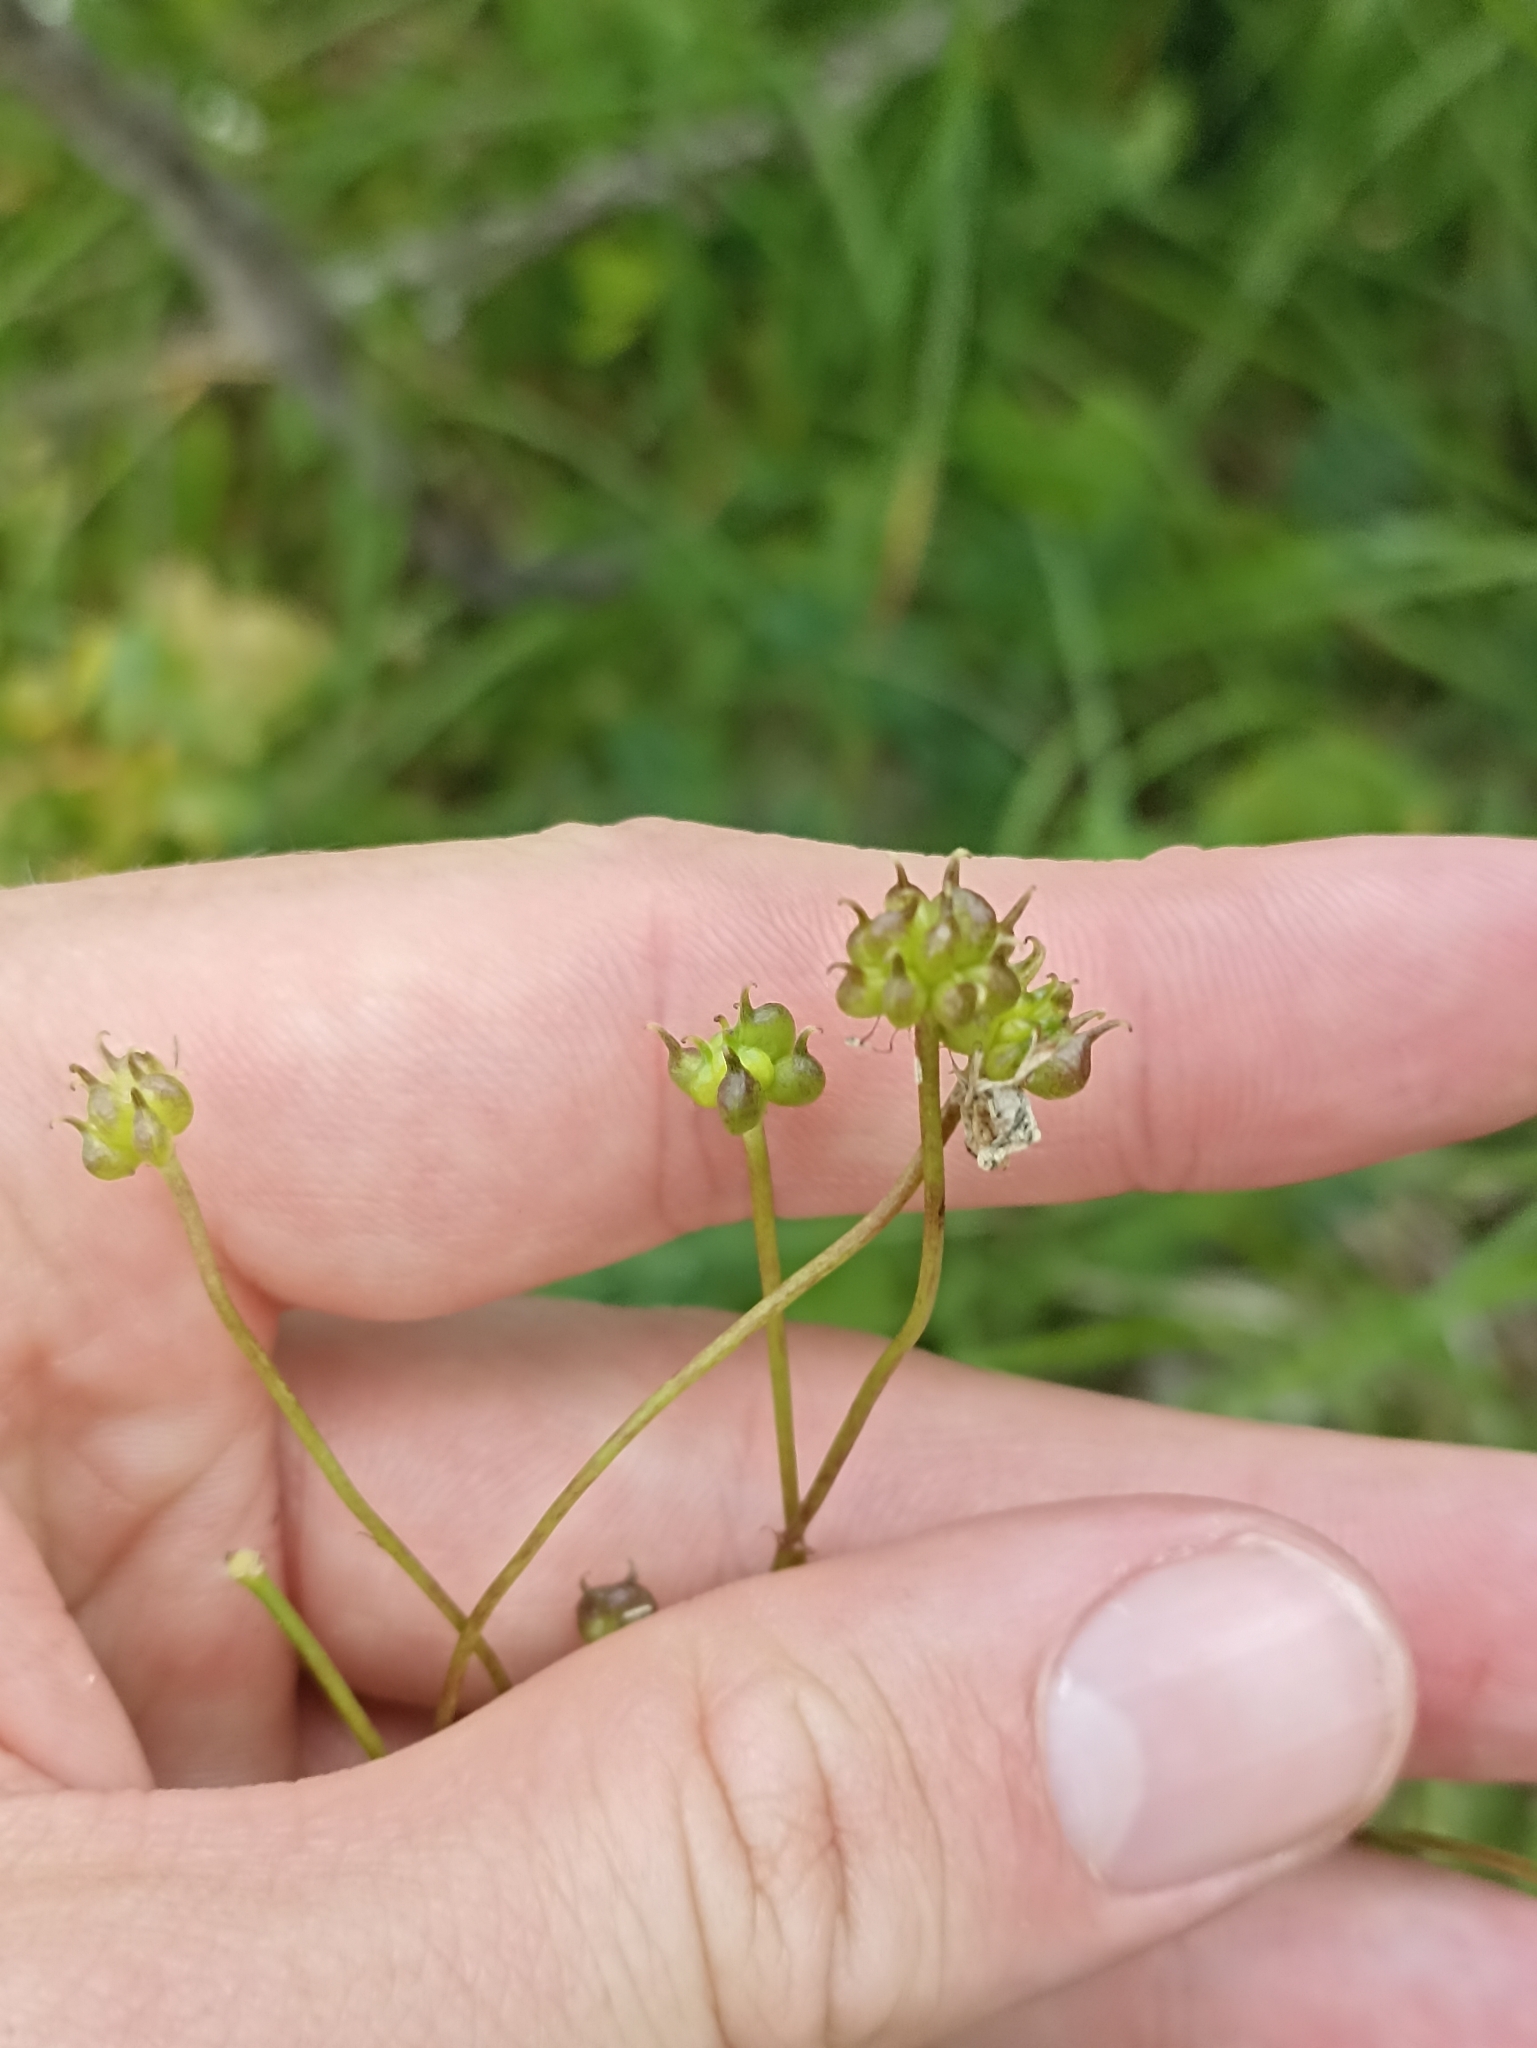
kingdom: Plantae
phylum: Tracheophyta
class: Magnoliopsida
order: Ranunculales
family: Ranunculaceae
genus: Ranunculus
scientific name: Ranunculus platanifolius
